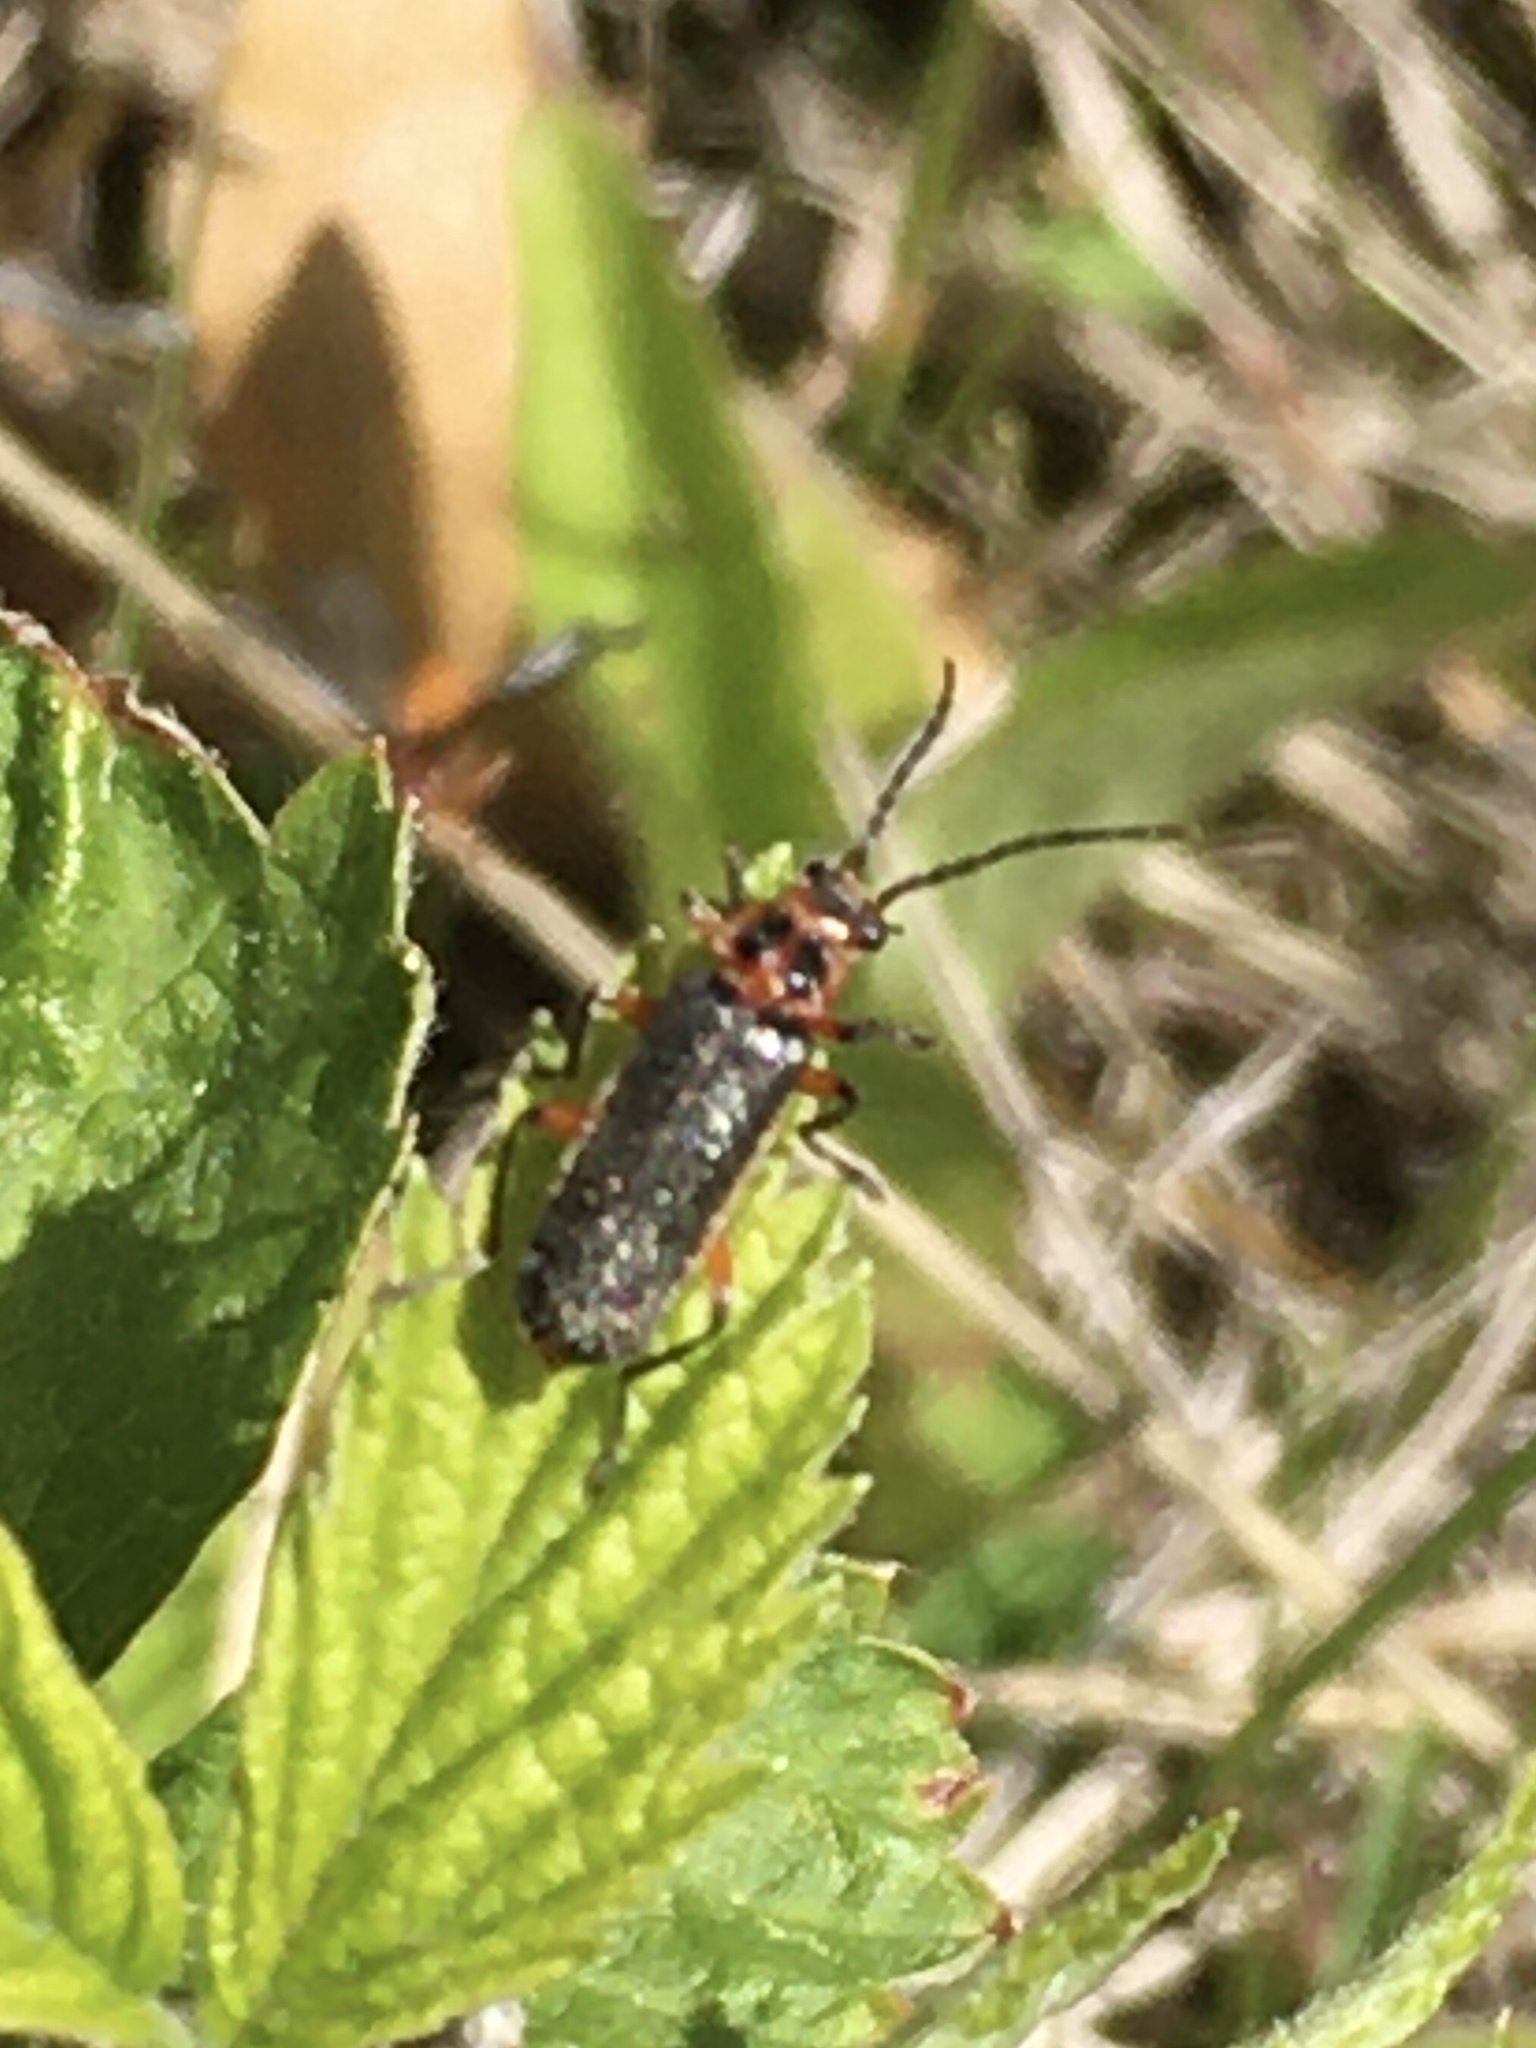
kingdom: Animalia
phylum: Arthropoda
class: Insecta
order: Coleoptera
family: Cantharidae
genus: Atalantycha
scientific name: Atalantycha bilineata
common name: Two-lined leatherwing
